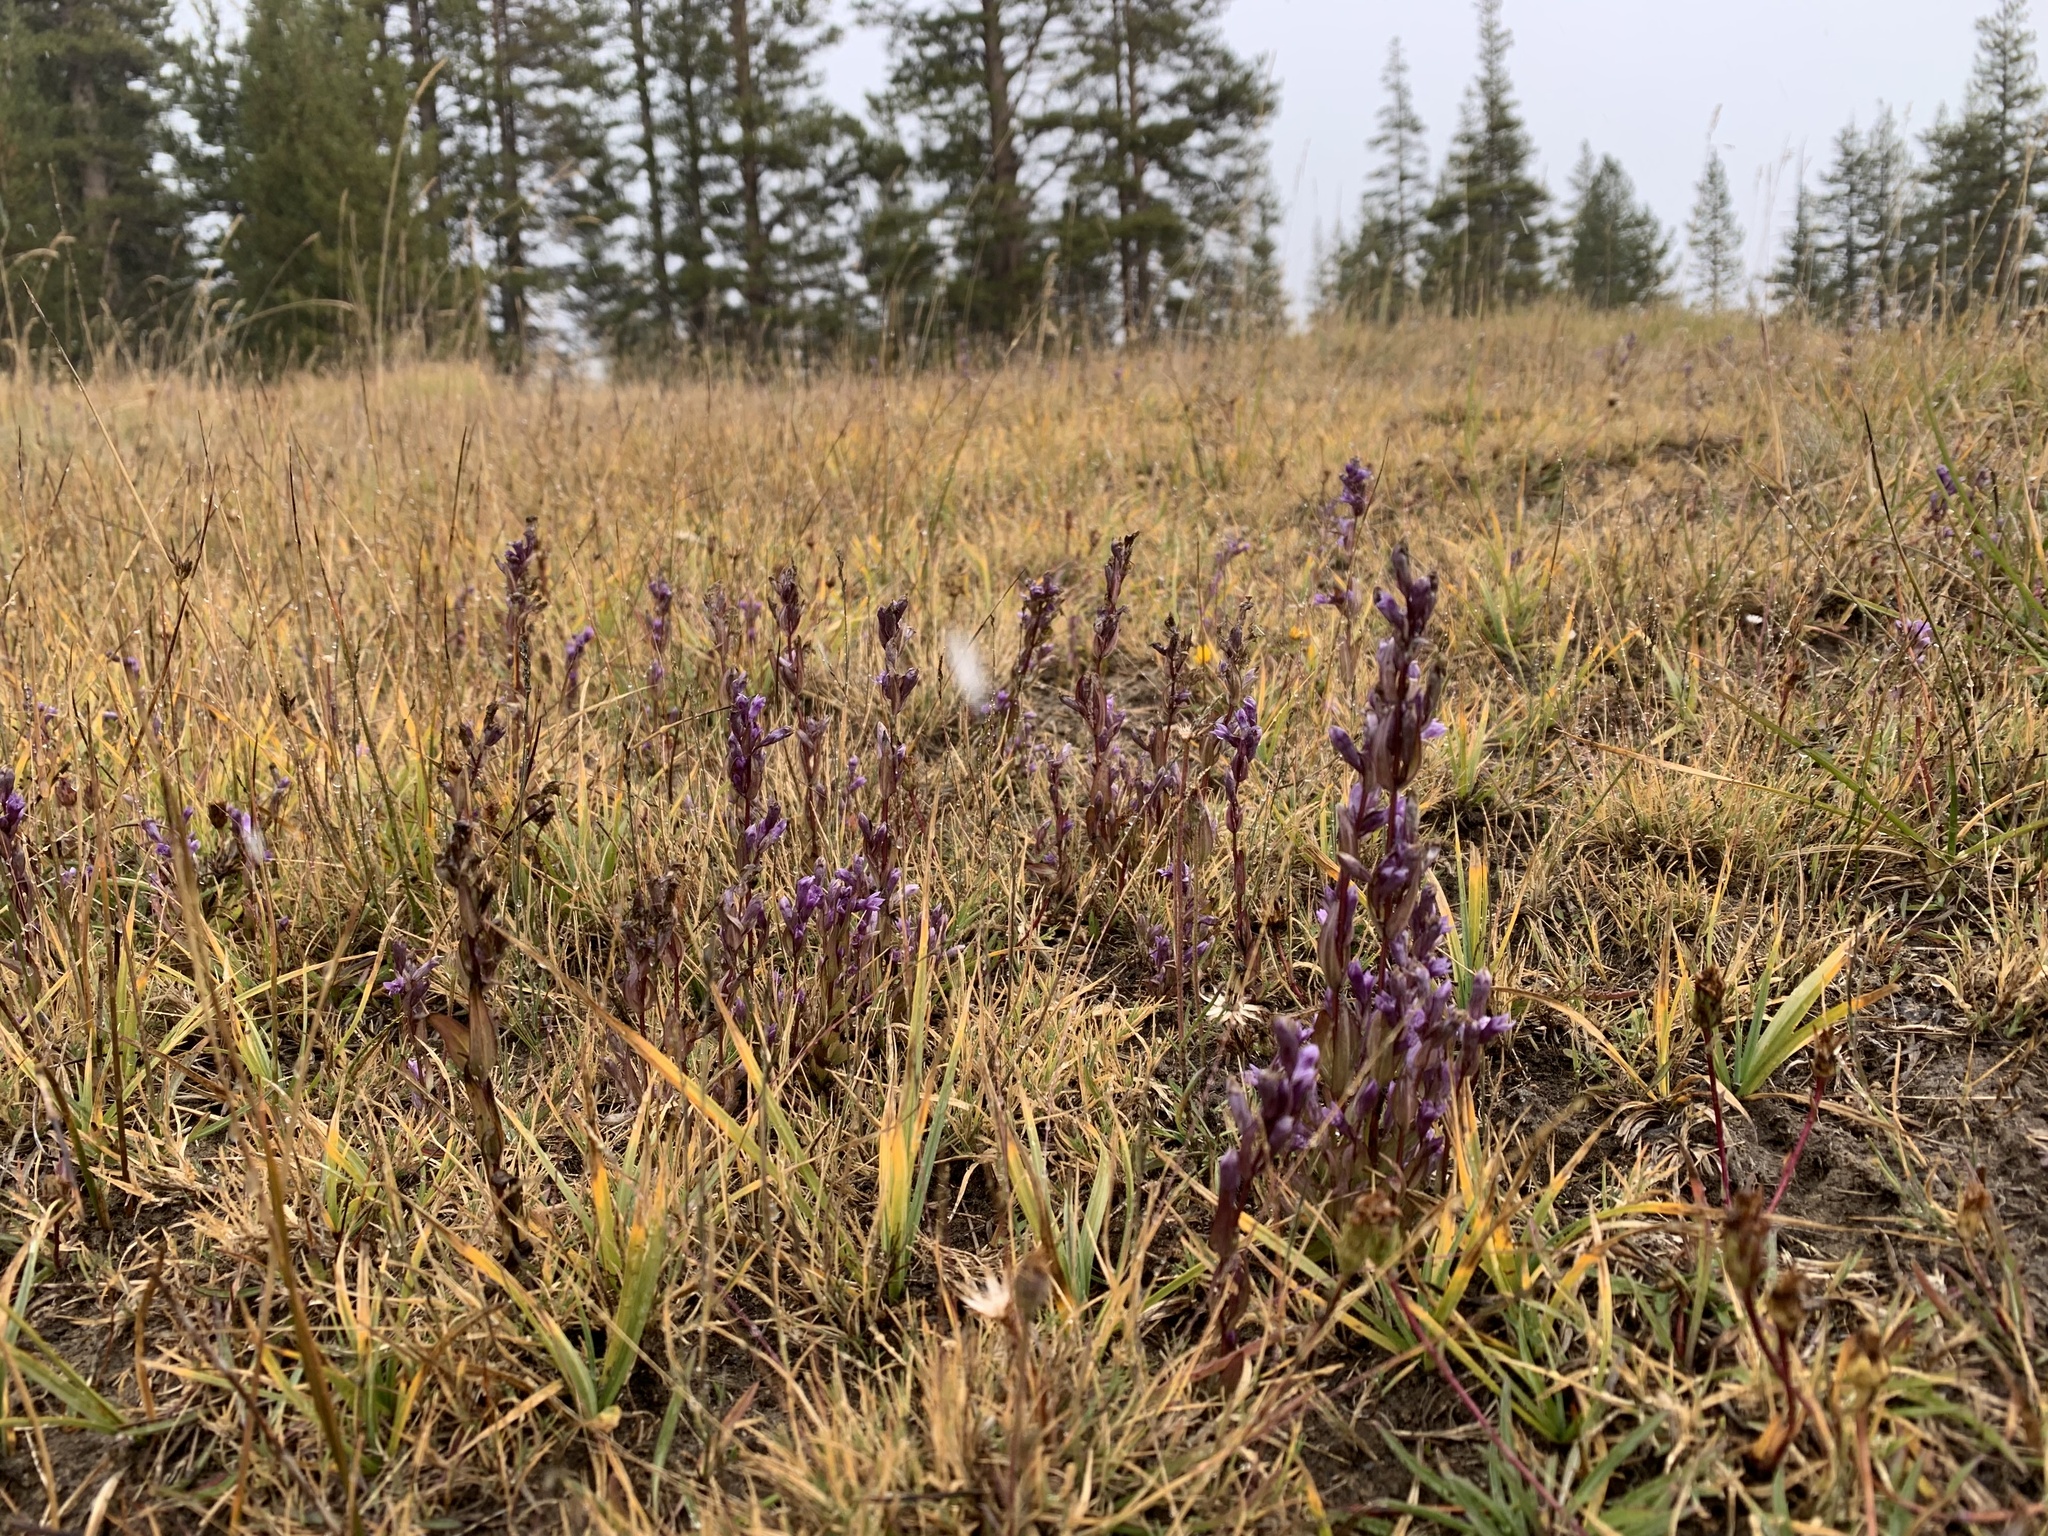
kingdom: Plantae
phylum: Tracheophyta
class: Magnoliopsida
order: Gentianales
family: Gentianaceae
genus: Gentianella
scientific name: Gentianella amarella
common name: Autumn gentian
